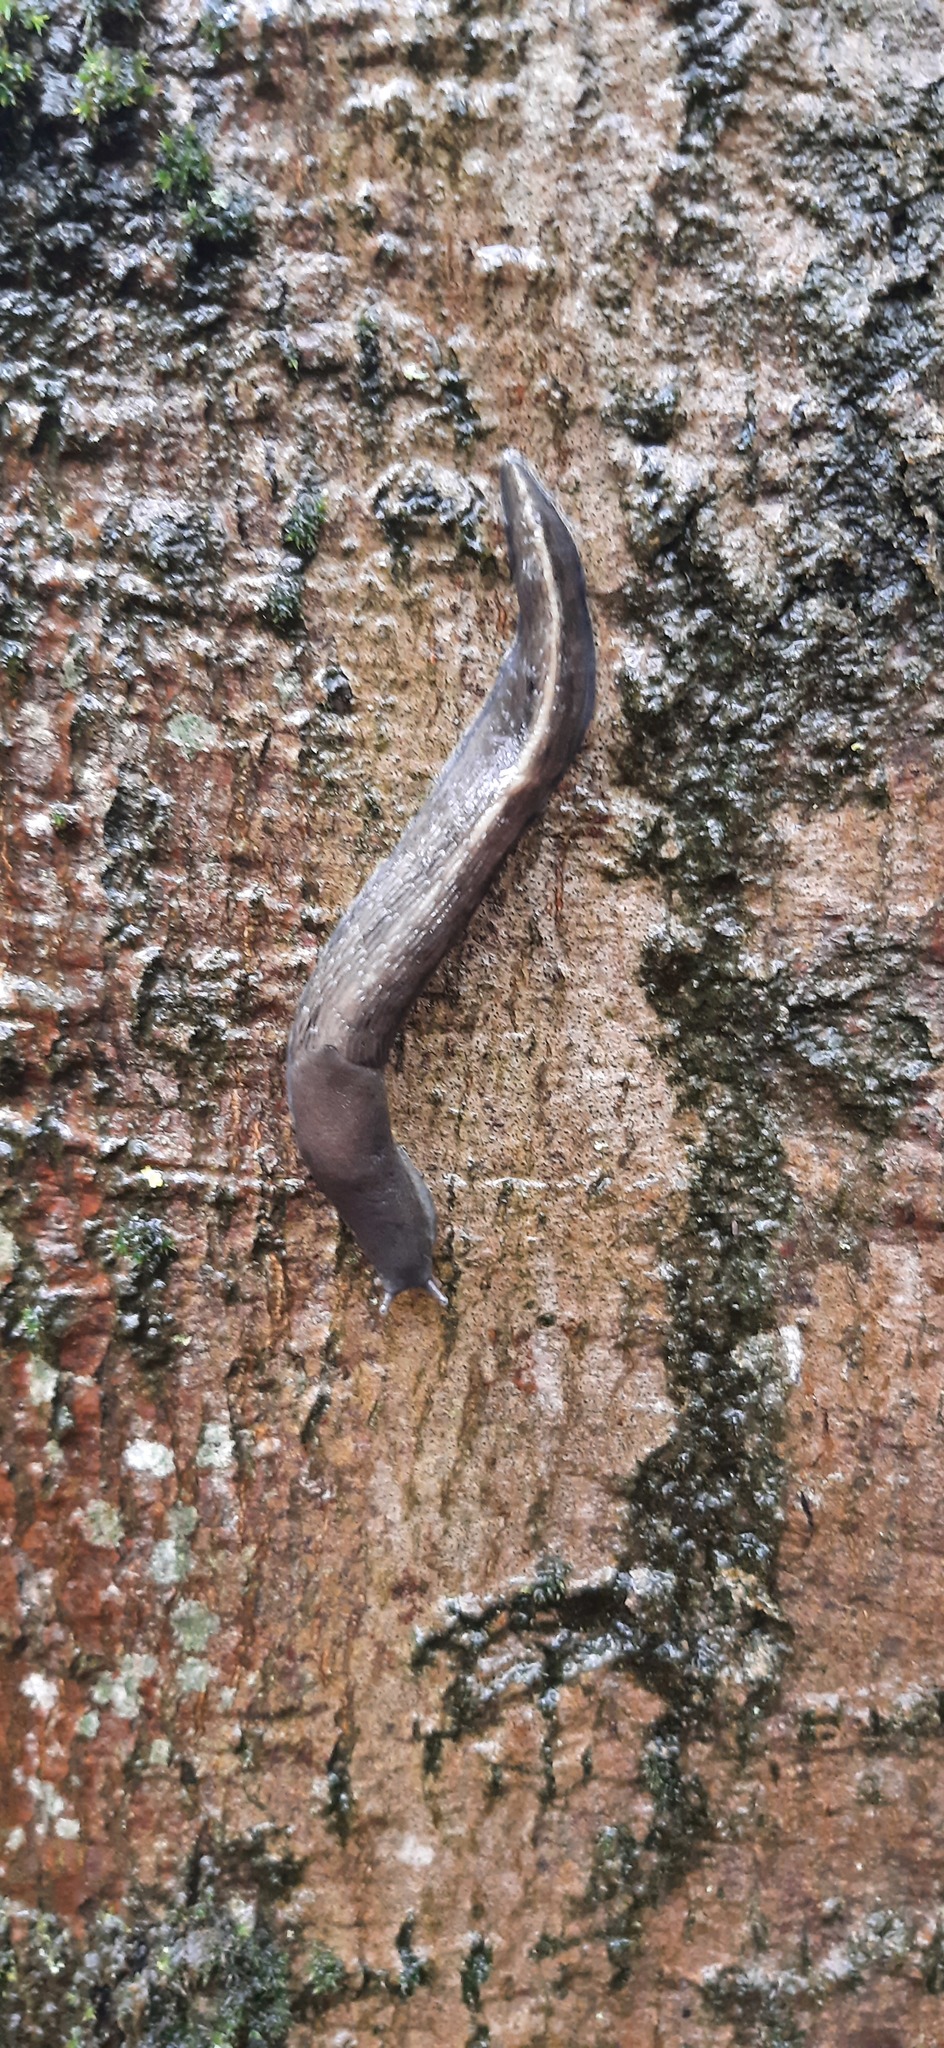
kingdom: Animalia
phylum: Mollusca
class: Gastropoda
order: Stylommatophora
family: Limacidae
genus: Limax
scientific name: Limax cinereoniger
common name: Ash-black slug
